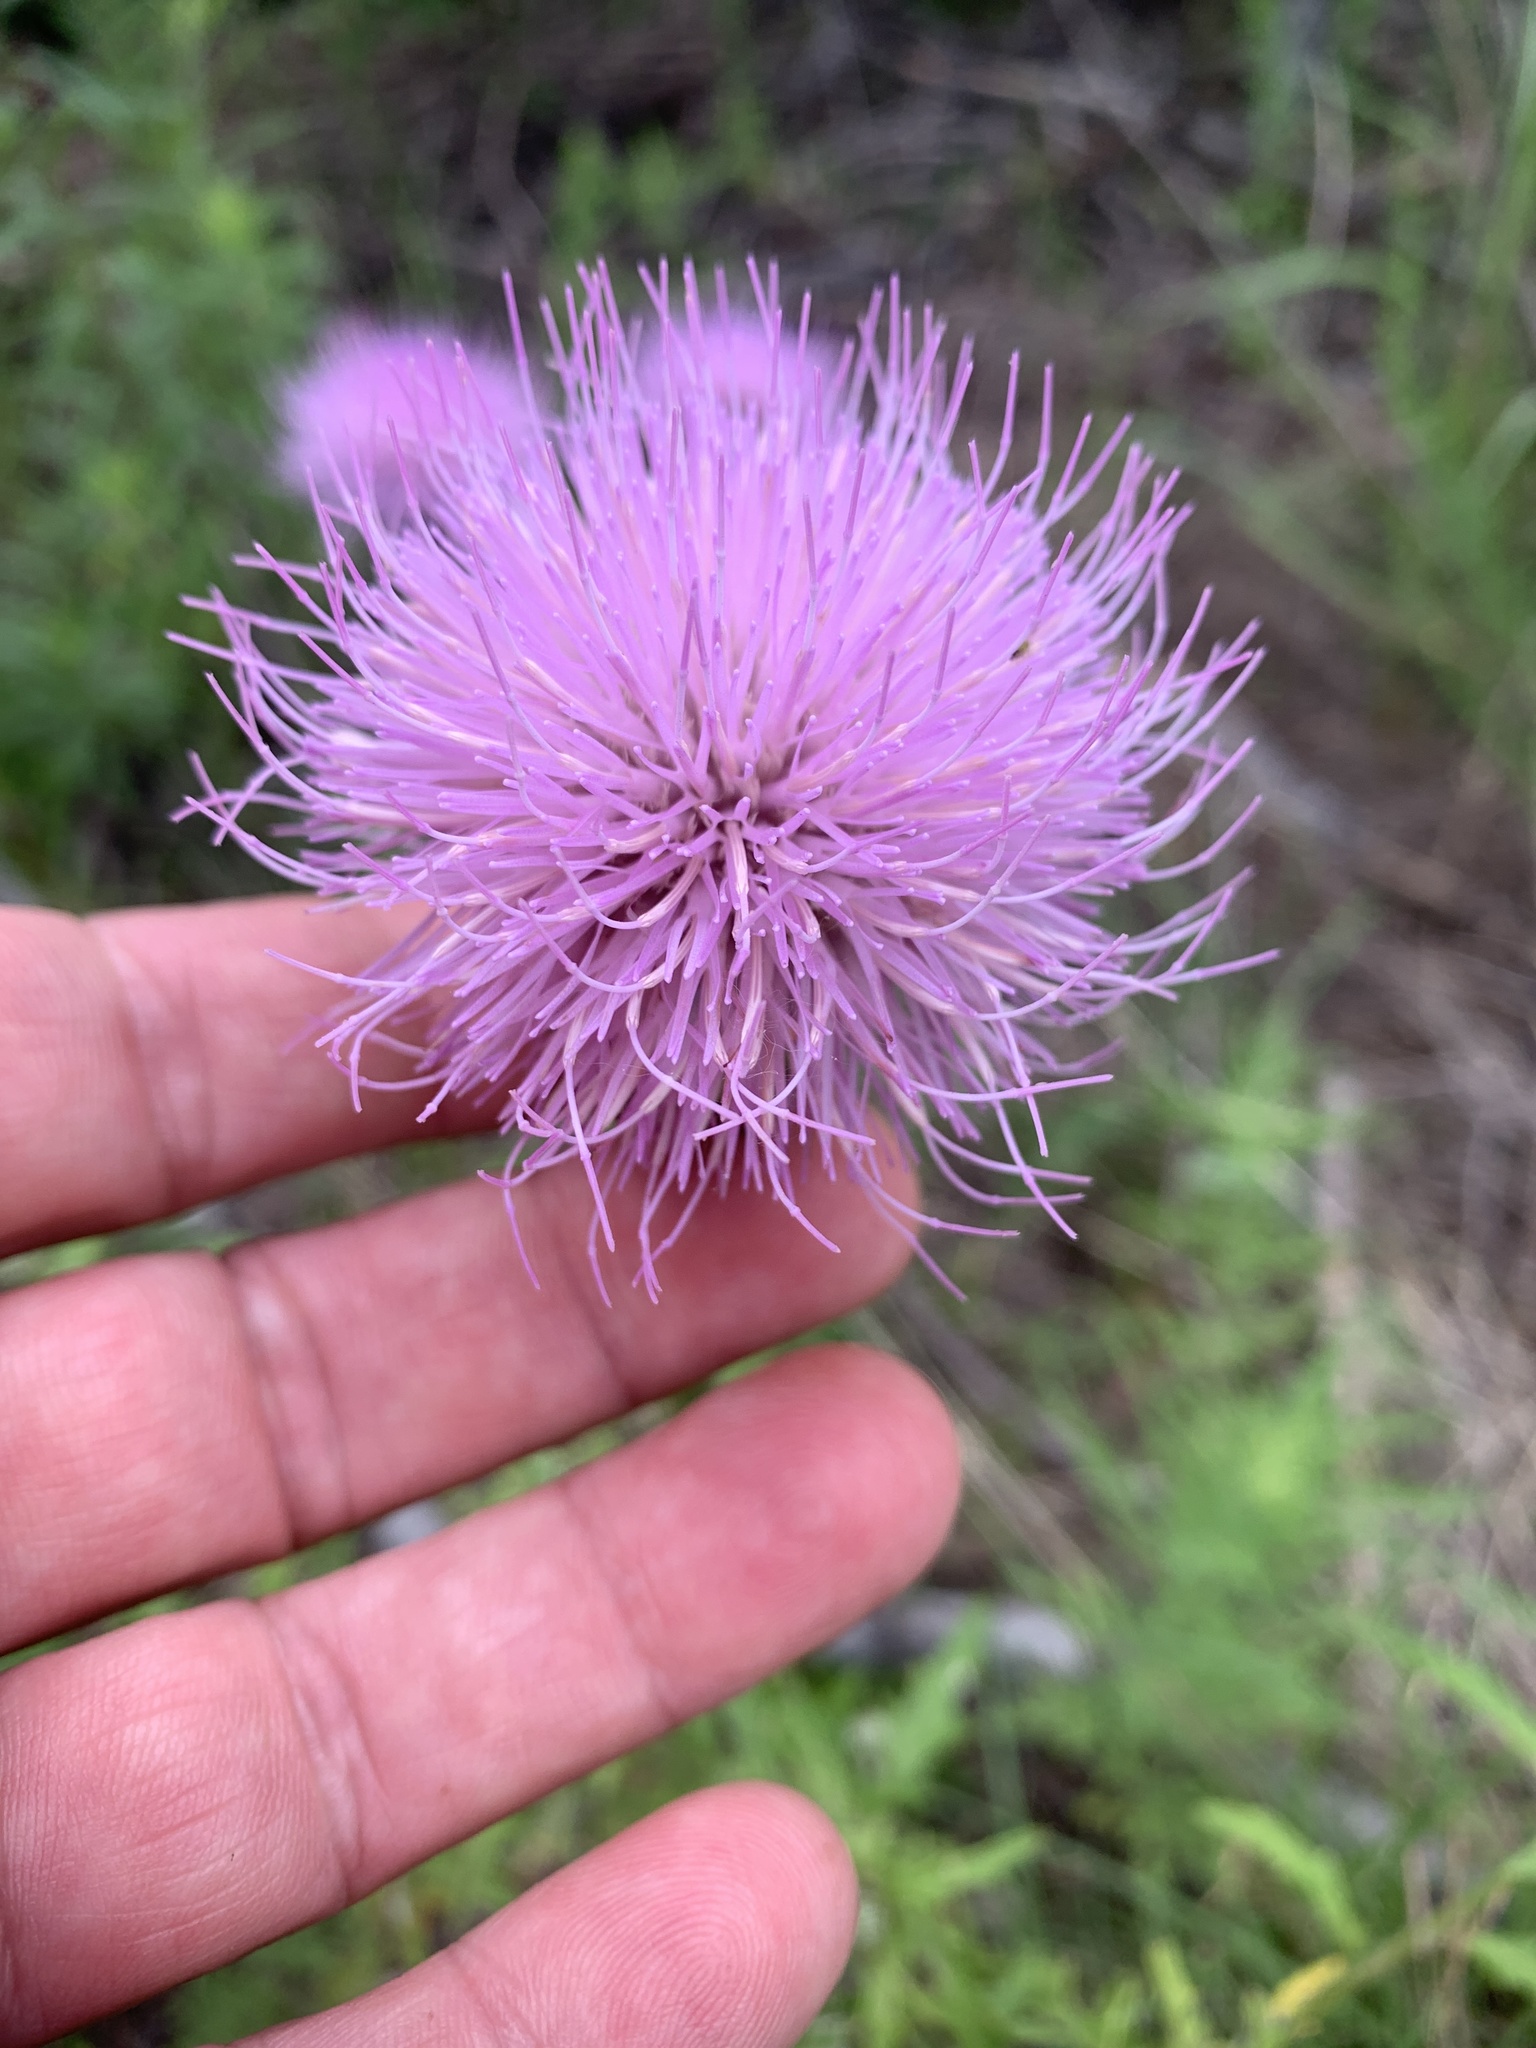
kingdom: Plantae
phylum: Tracheophyta
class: Magnoliopsida
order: Asterales
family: Asteraceae
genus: Cirsium
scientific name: Cirsium texanum
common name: Texas purple thistle
